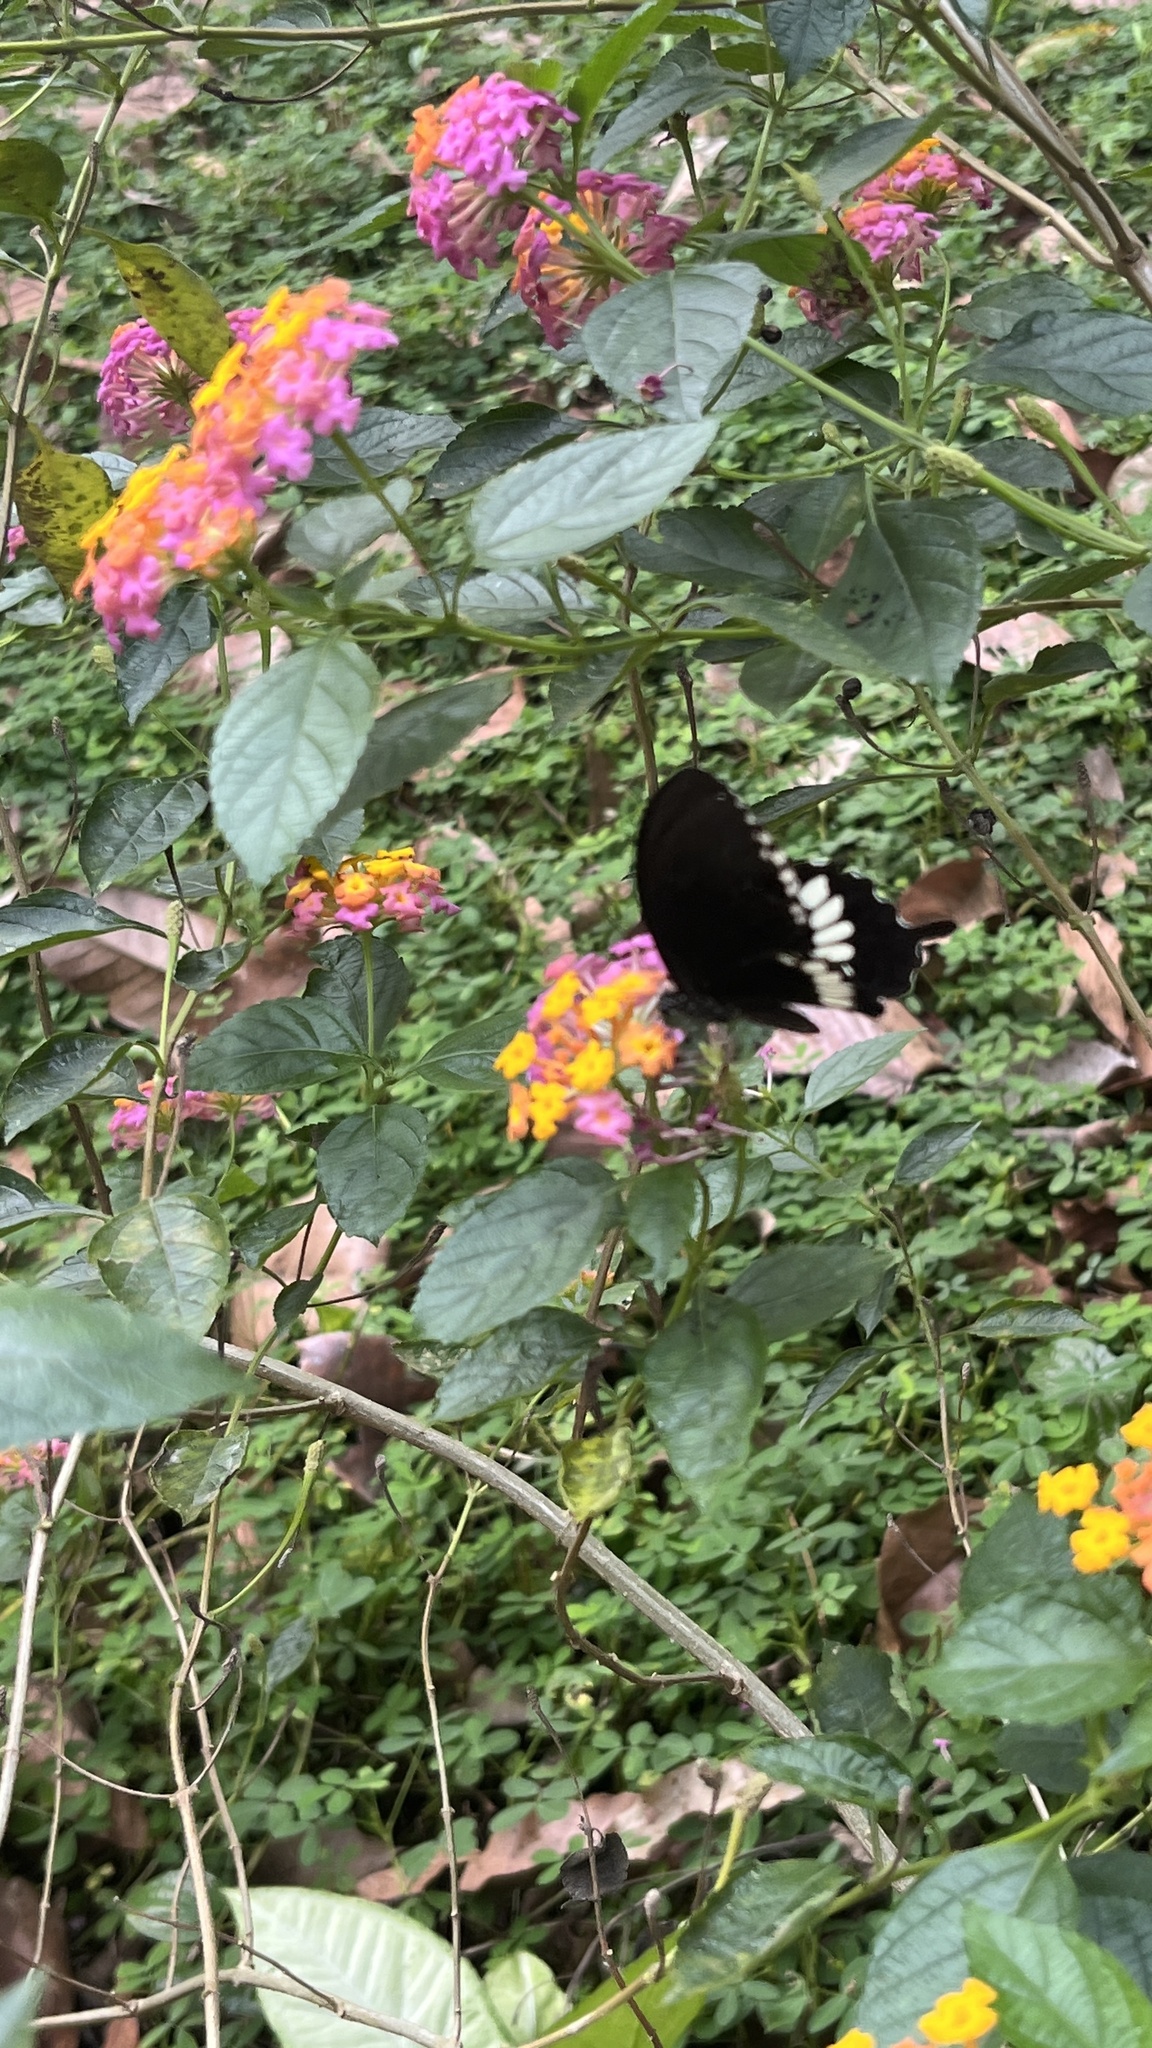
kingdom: Animalia
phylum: Arthropoda
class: Insecta
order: Lepidoptera
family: Papilionidae
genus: Papilio
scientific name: Papilio polytes
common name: Common mormon
